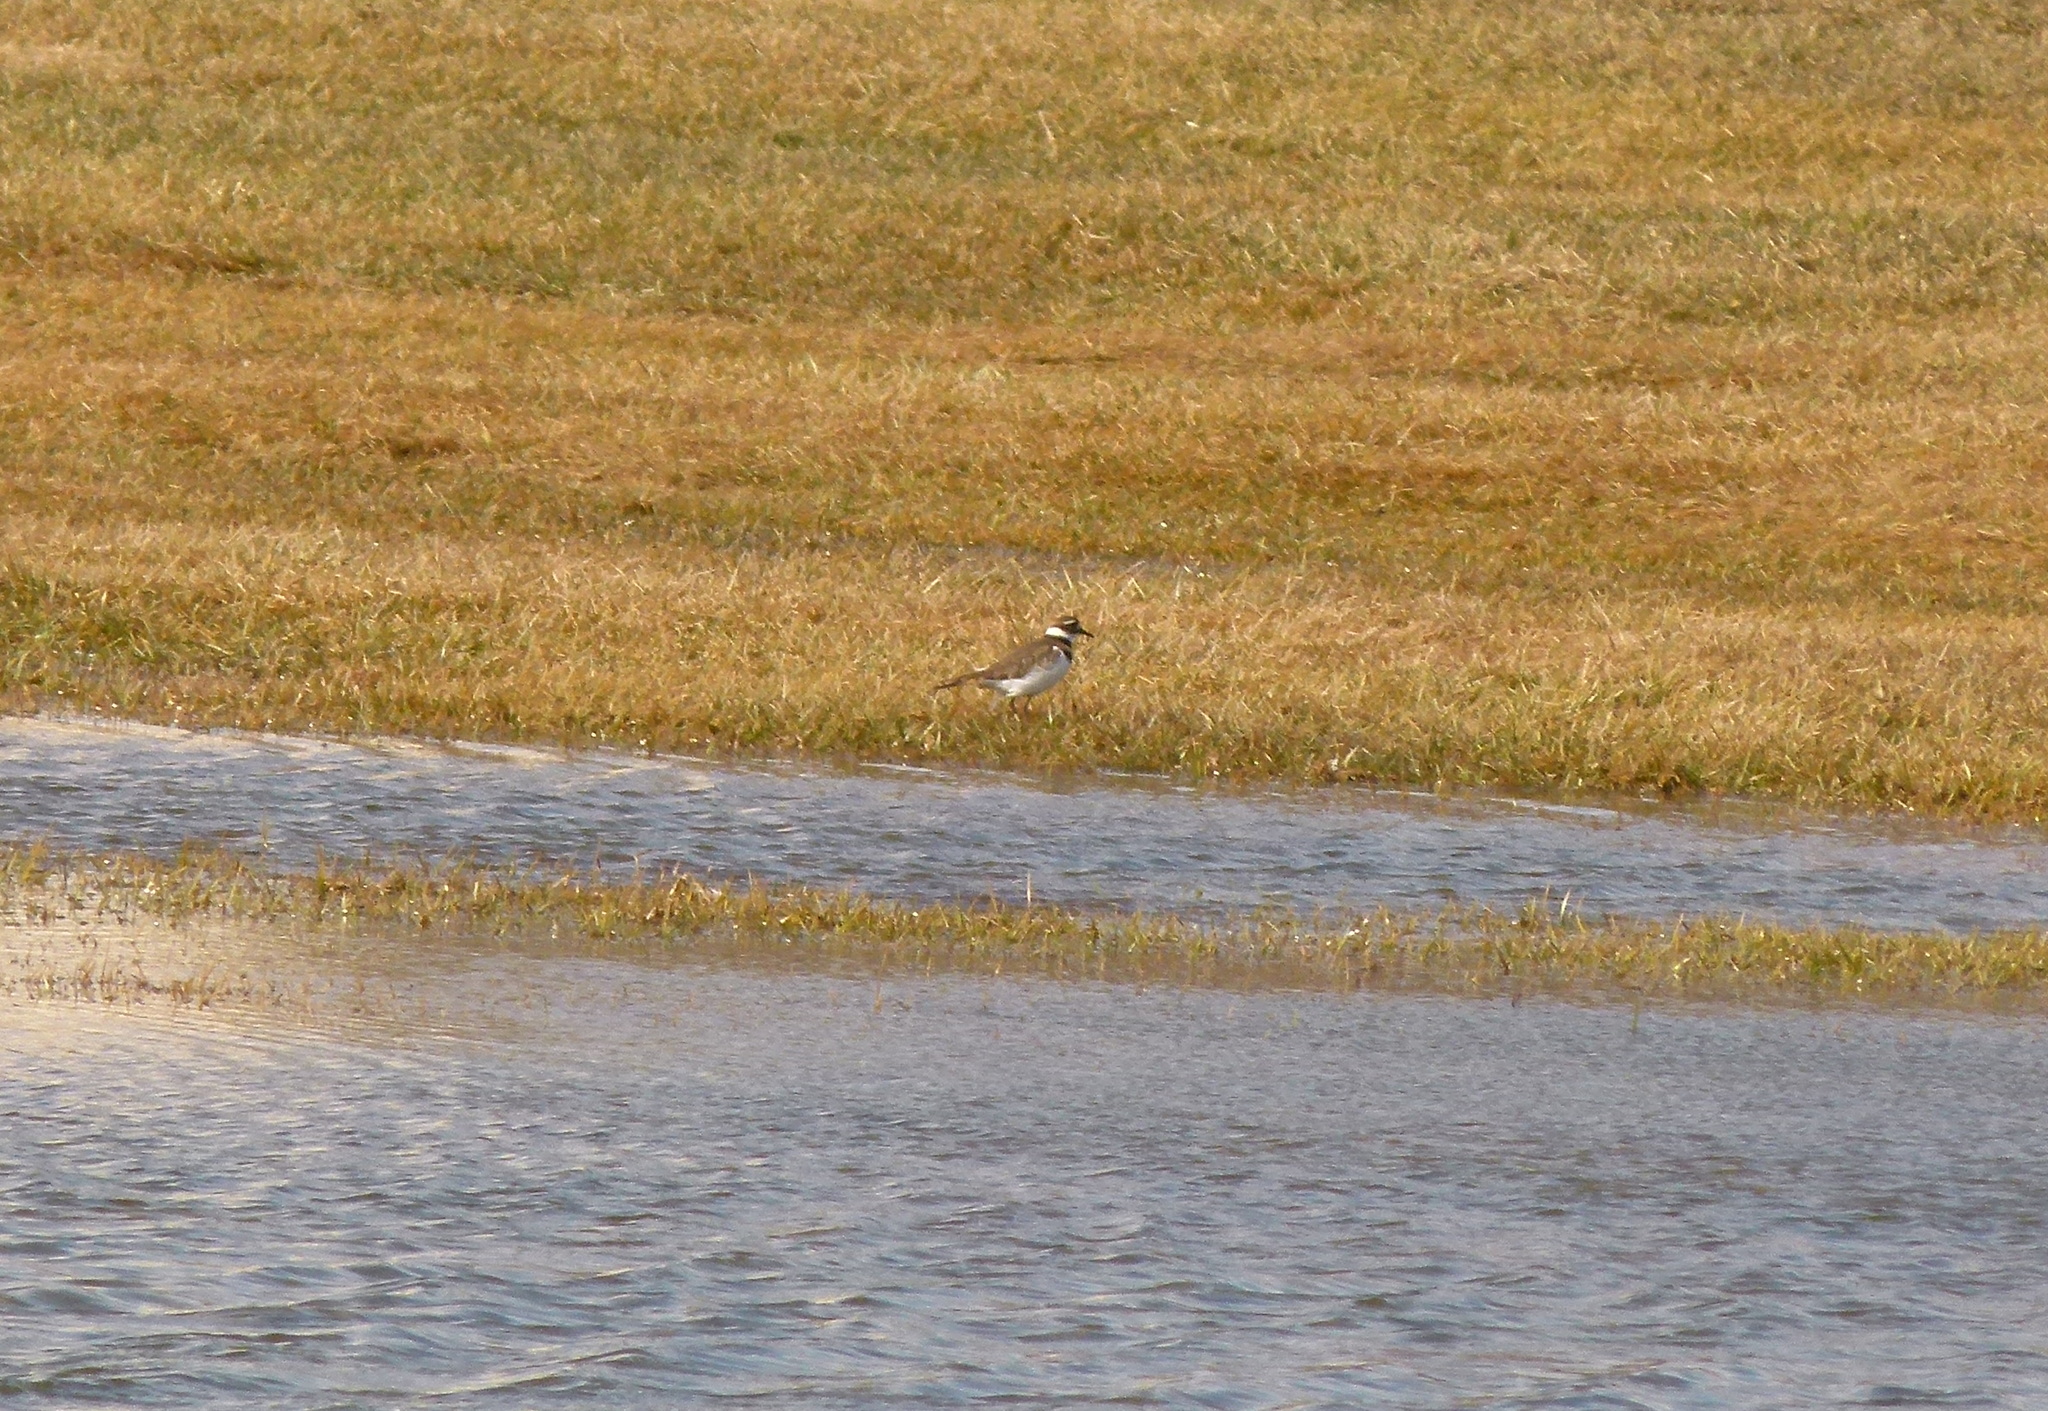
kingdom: Animalia
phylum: Chordata
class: Aves
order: Charadriiformes
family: Charadriidae
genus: Charadrius
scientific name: Charadrius vociferus
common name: Killdeer
